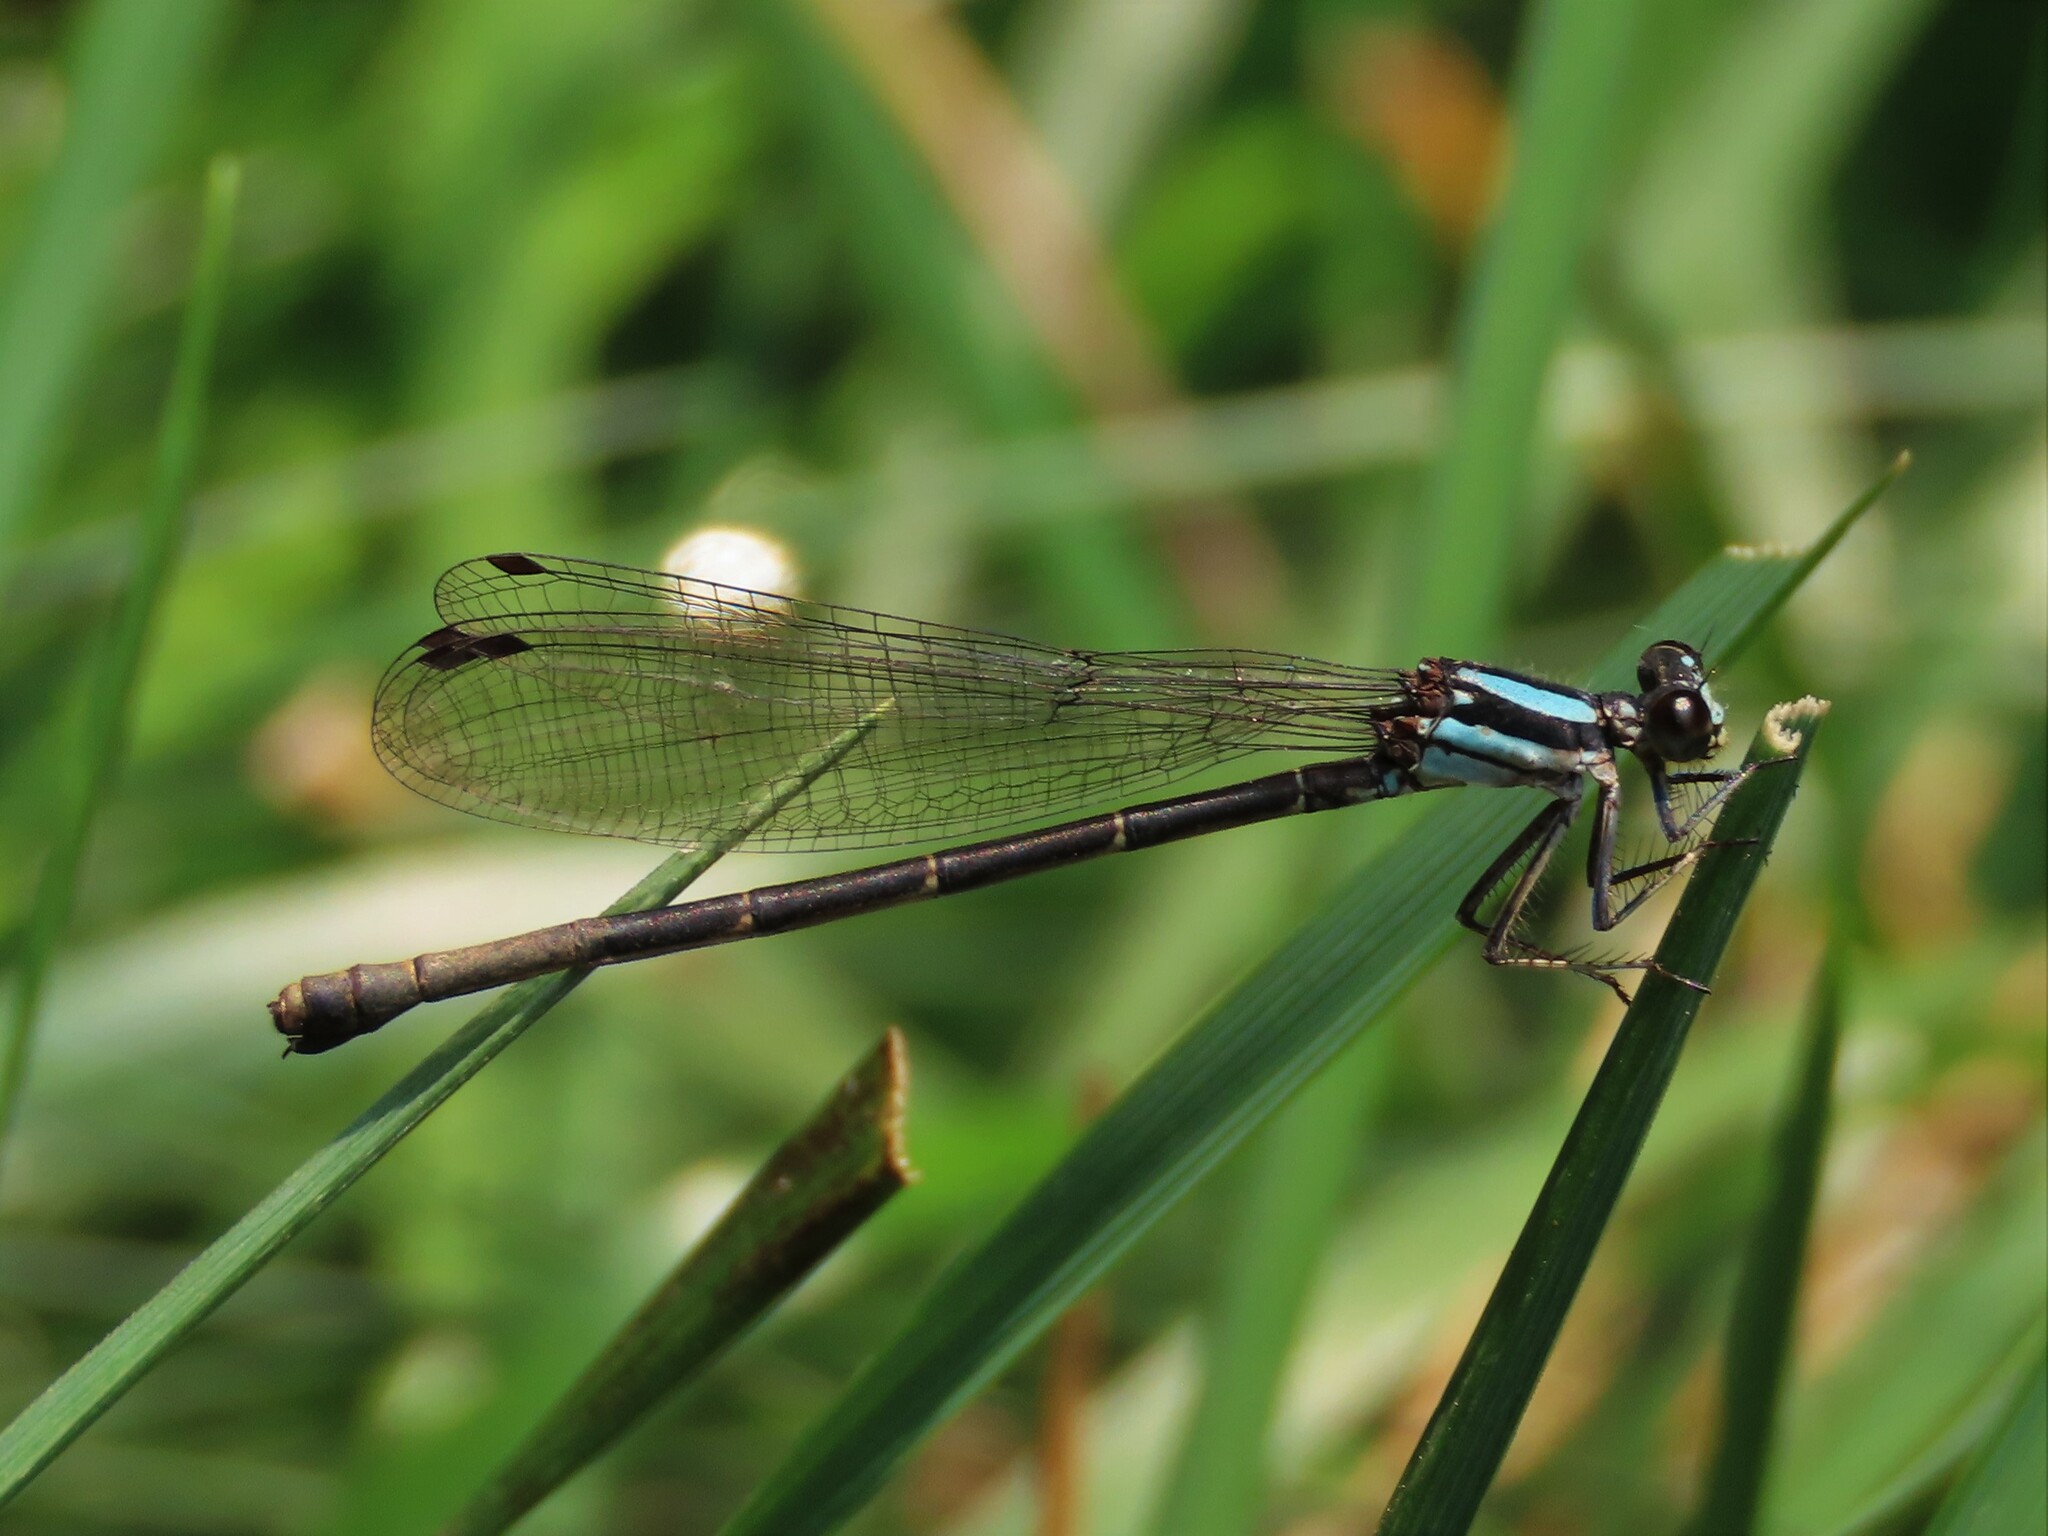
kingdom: Animalia
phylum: Arthropoda
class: Insecta
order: Odonata
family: Coenagrionidae
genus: Argia
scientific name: Argia tibialis
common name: Blue-tipped dancer
